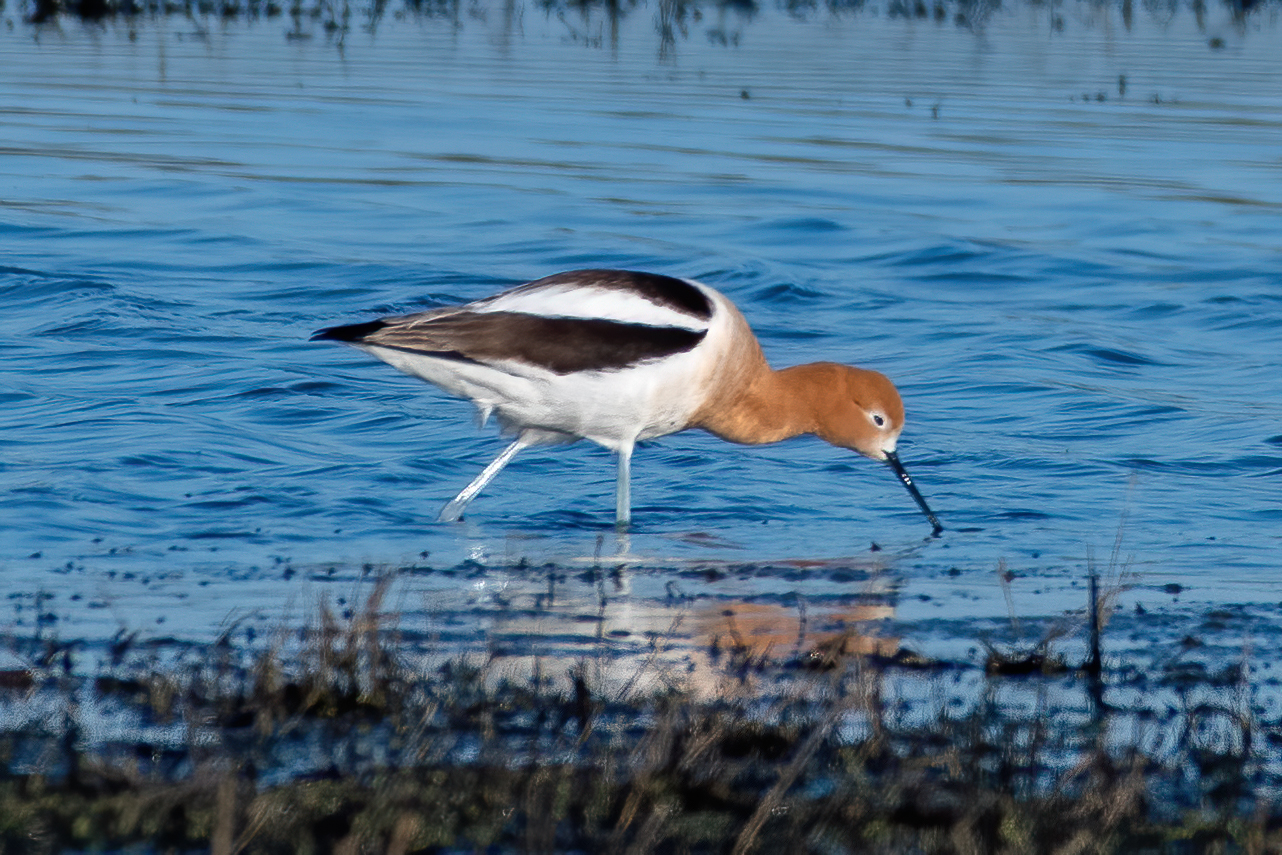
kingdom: Animalia
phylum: Chordata
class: Aves
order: Charadriiformes
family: Recurvirostridae
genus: Recurvirostra
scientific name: Recurvirostra americana
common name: American avocet
